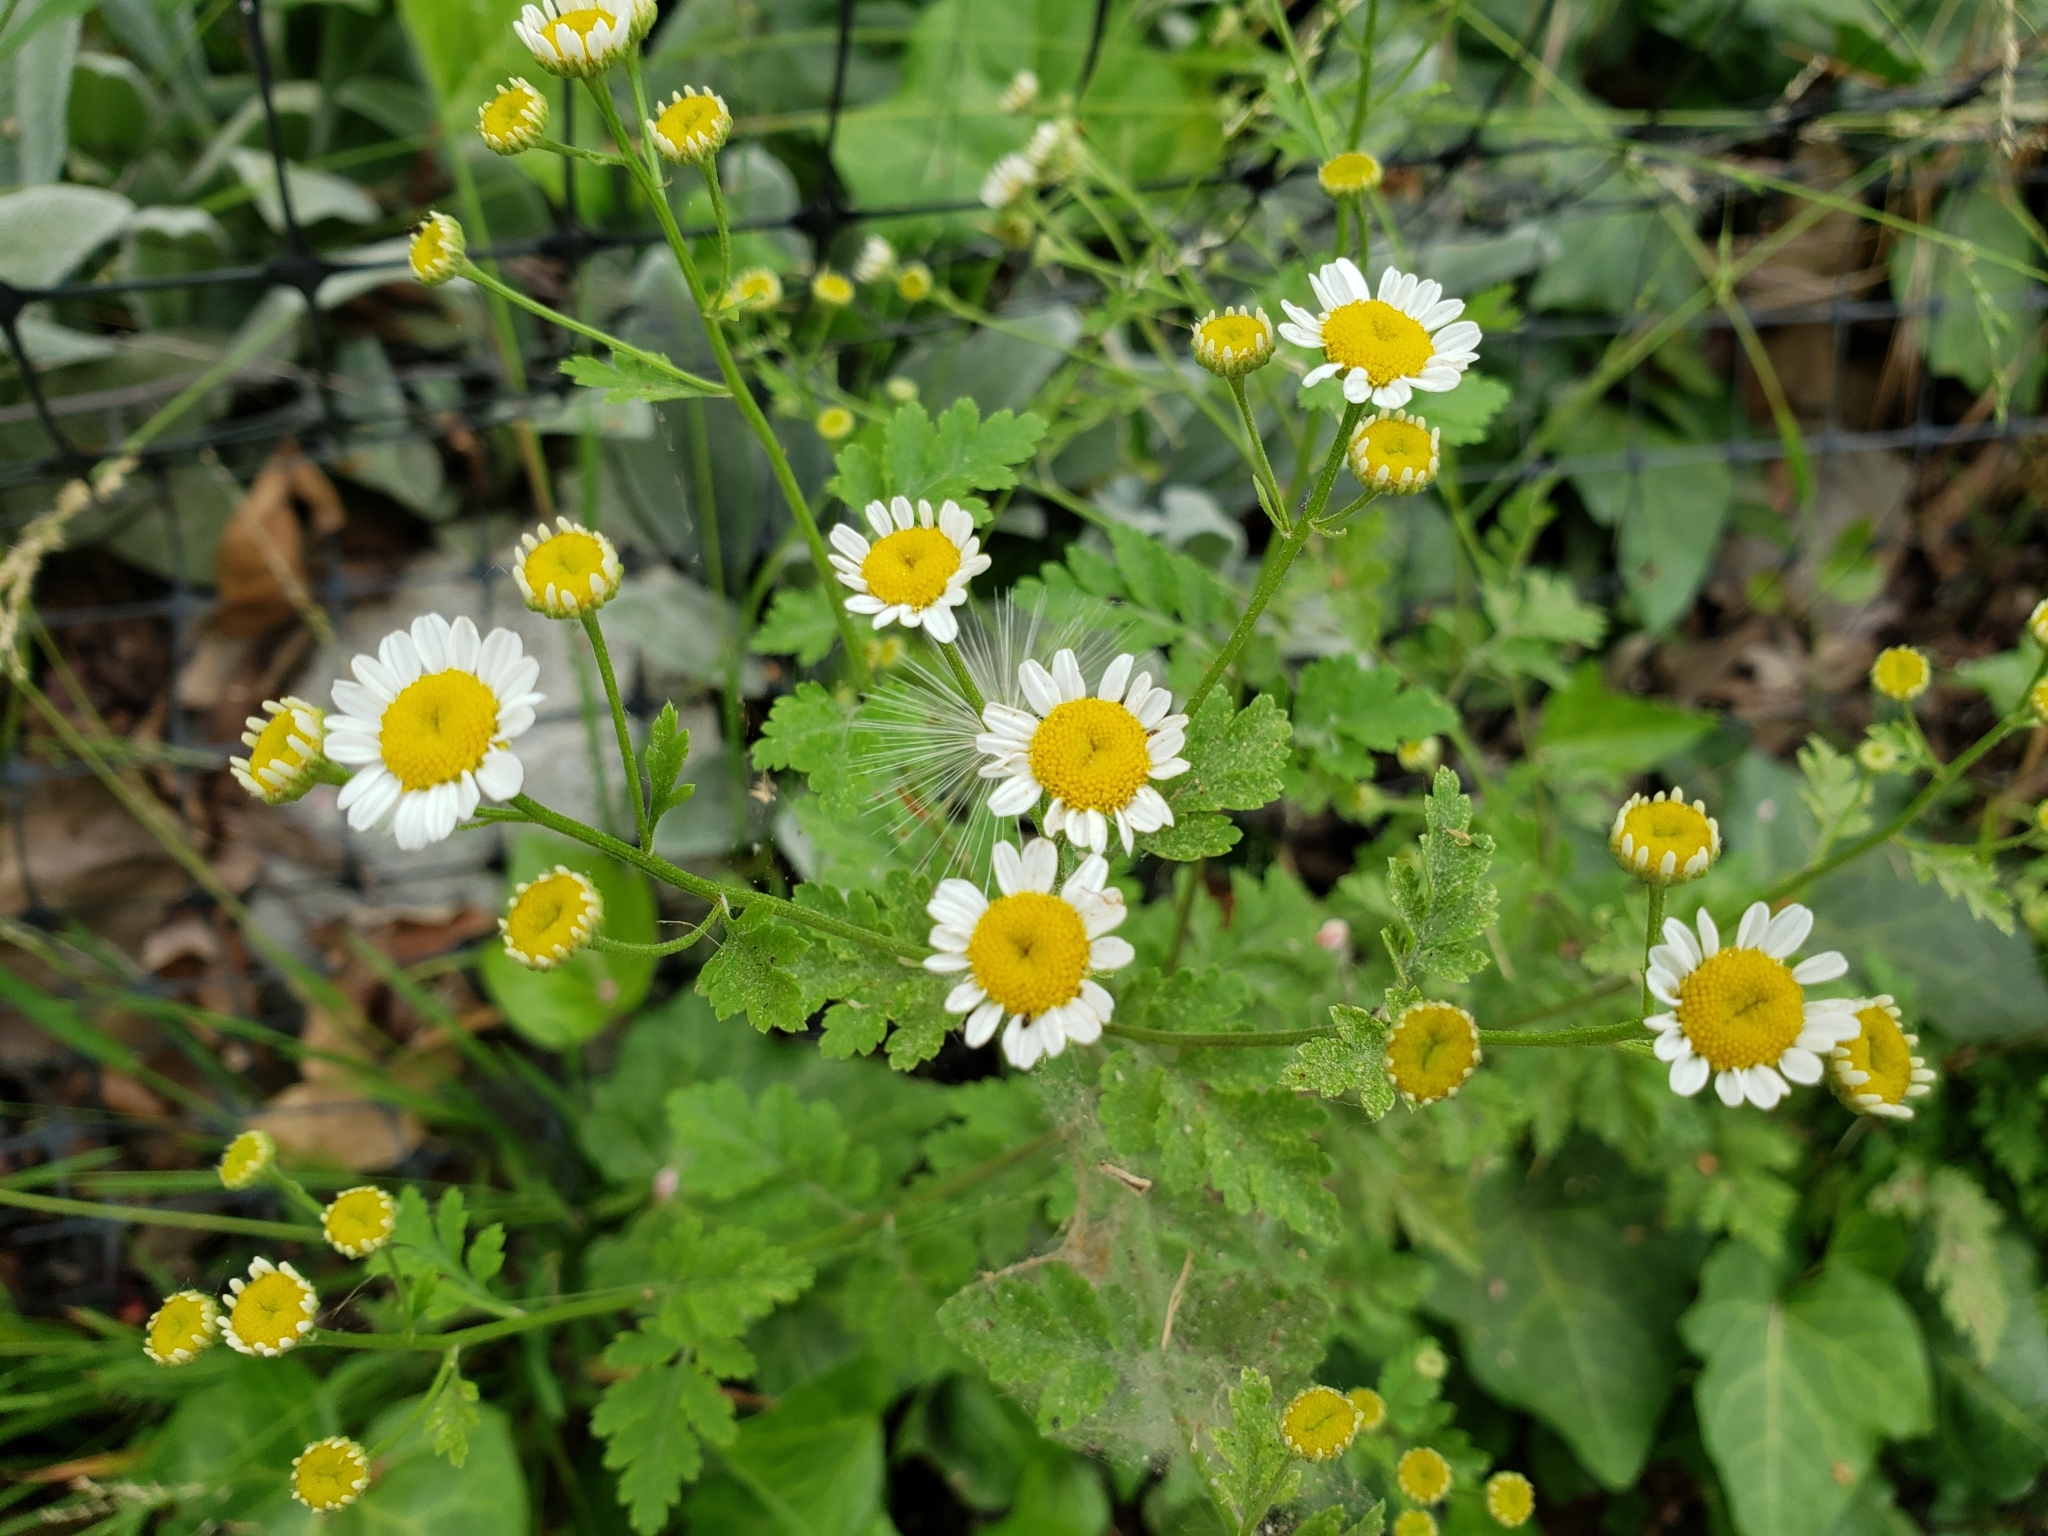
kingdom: Plantae
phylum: Tracheophyta
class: Magnoliopsida
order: Asterales
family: Asteraceae
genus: Tanacetum
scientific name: Tanacetum parthenium
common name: Feverfew
